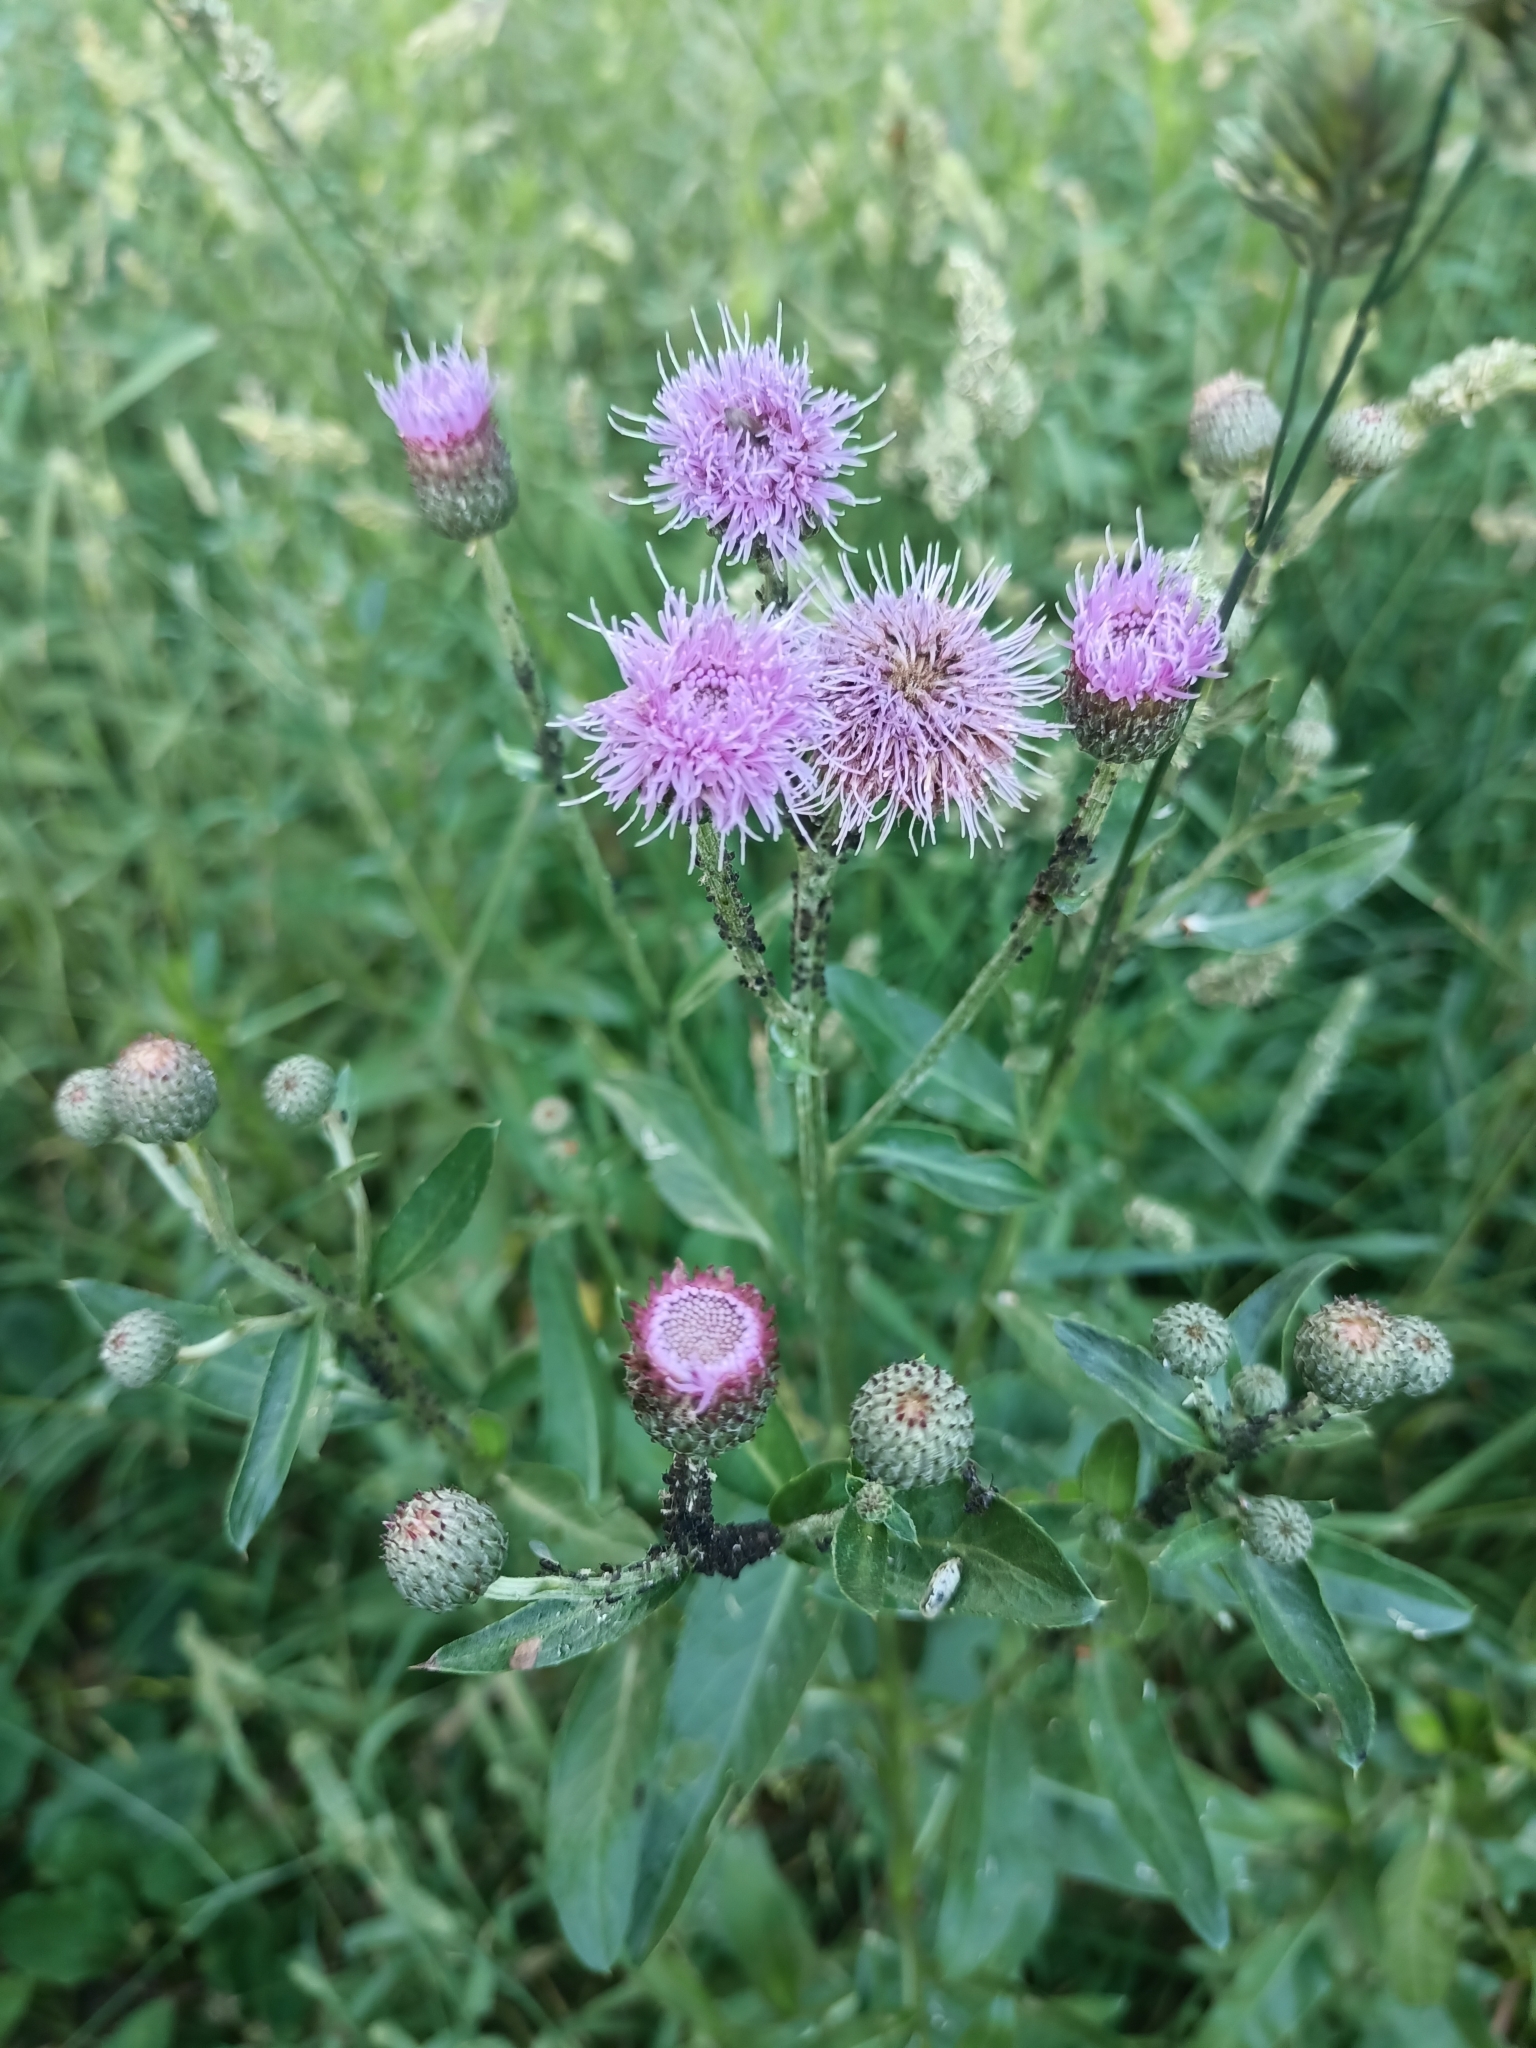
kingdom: Plantae
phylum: Tracheophyta
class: Magnoliopsida
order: Asterales
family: Asteraceae
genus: Cirsium
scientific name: Cirsium arvense
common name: Creeping thistle
